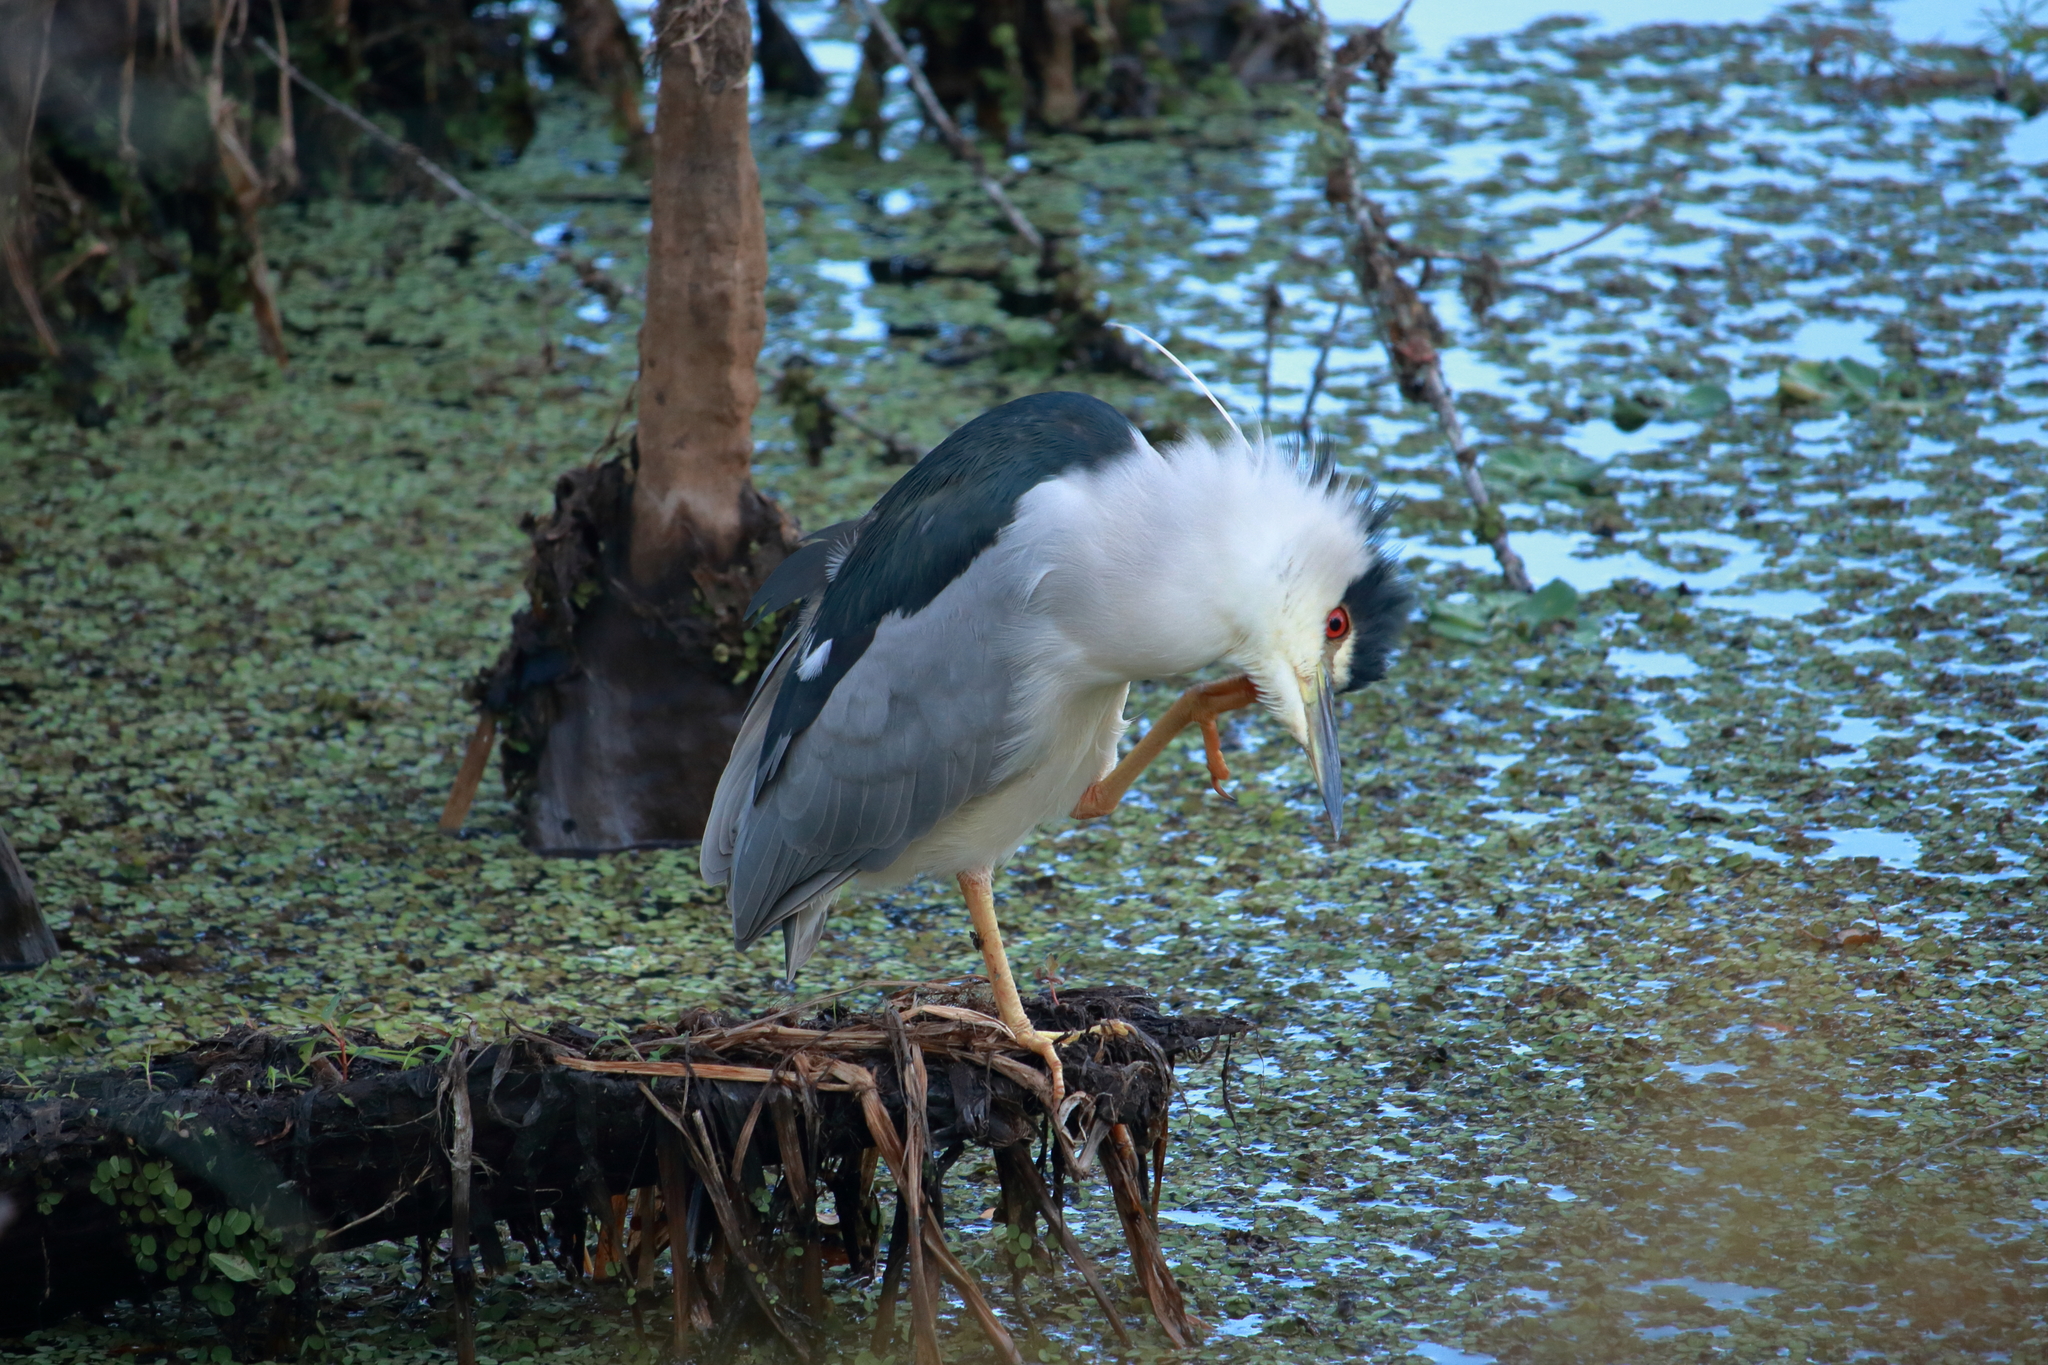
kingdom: Animalia
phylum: Chordata
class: Aves
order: Pelecaniformes
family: Ardeidae
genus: Nycticorax
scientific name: Nycticorax nycticorax
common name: Black-crowned night heron
